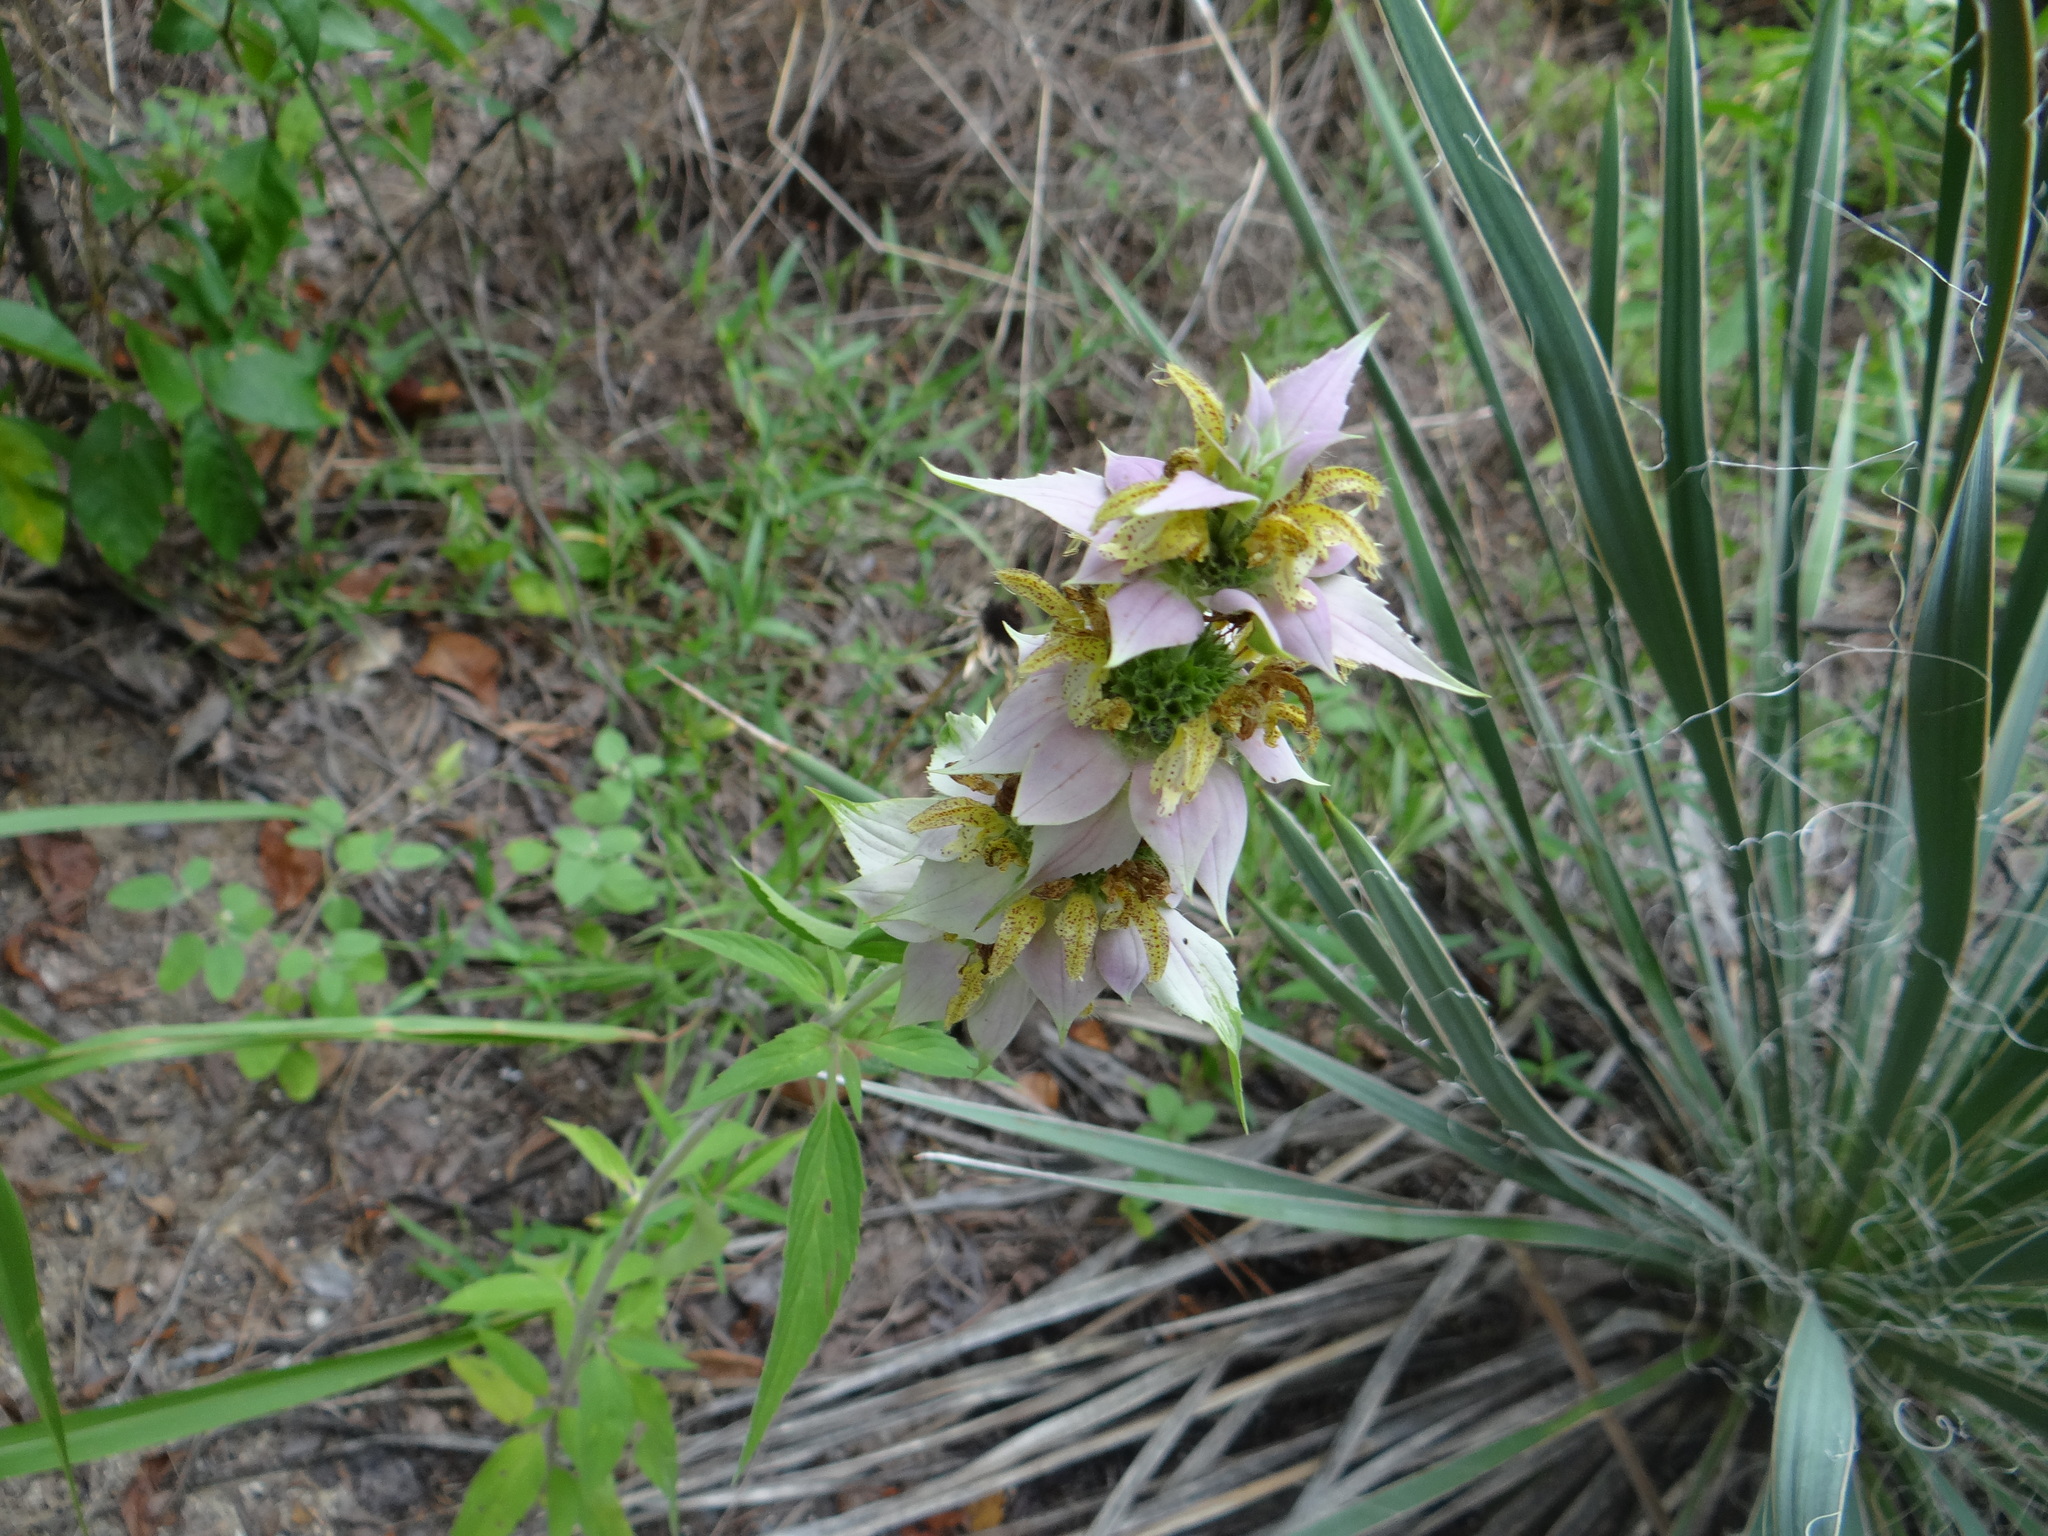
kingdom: Plantae
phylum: Tracheophyta
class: Magnoliopsida
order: Lamiales
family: Lamiaceae
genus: Monarda
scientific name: Monarda punctata
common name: Dotted monarda
